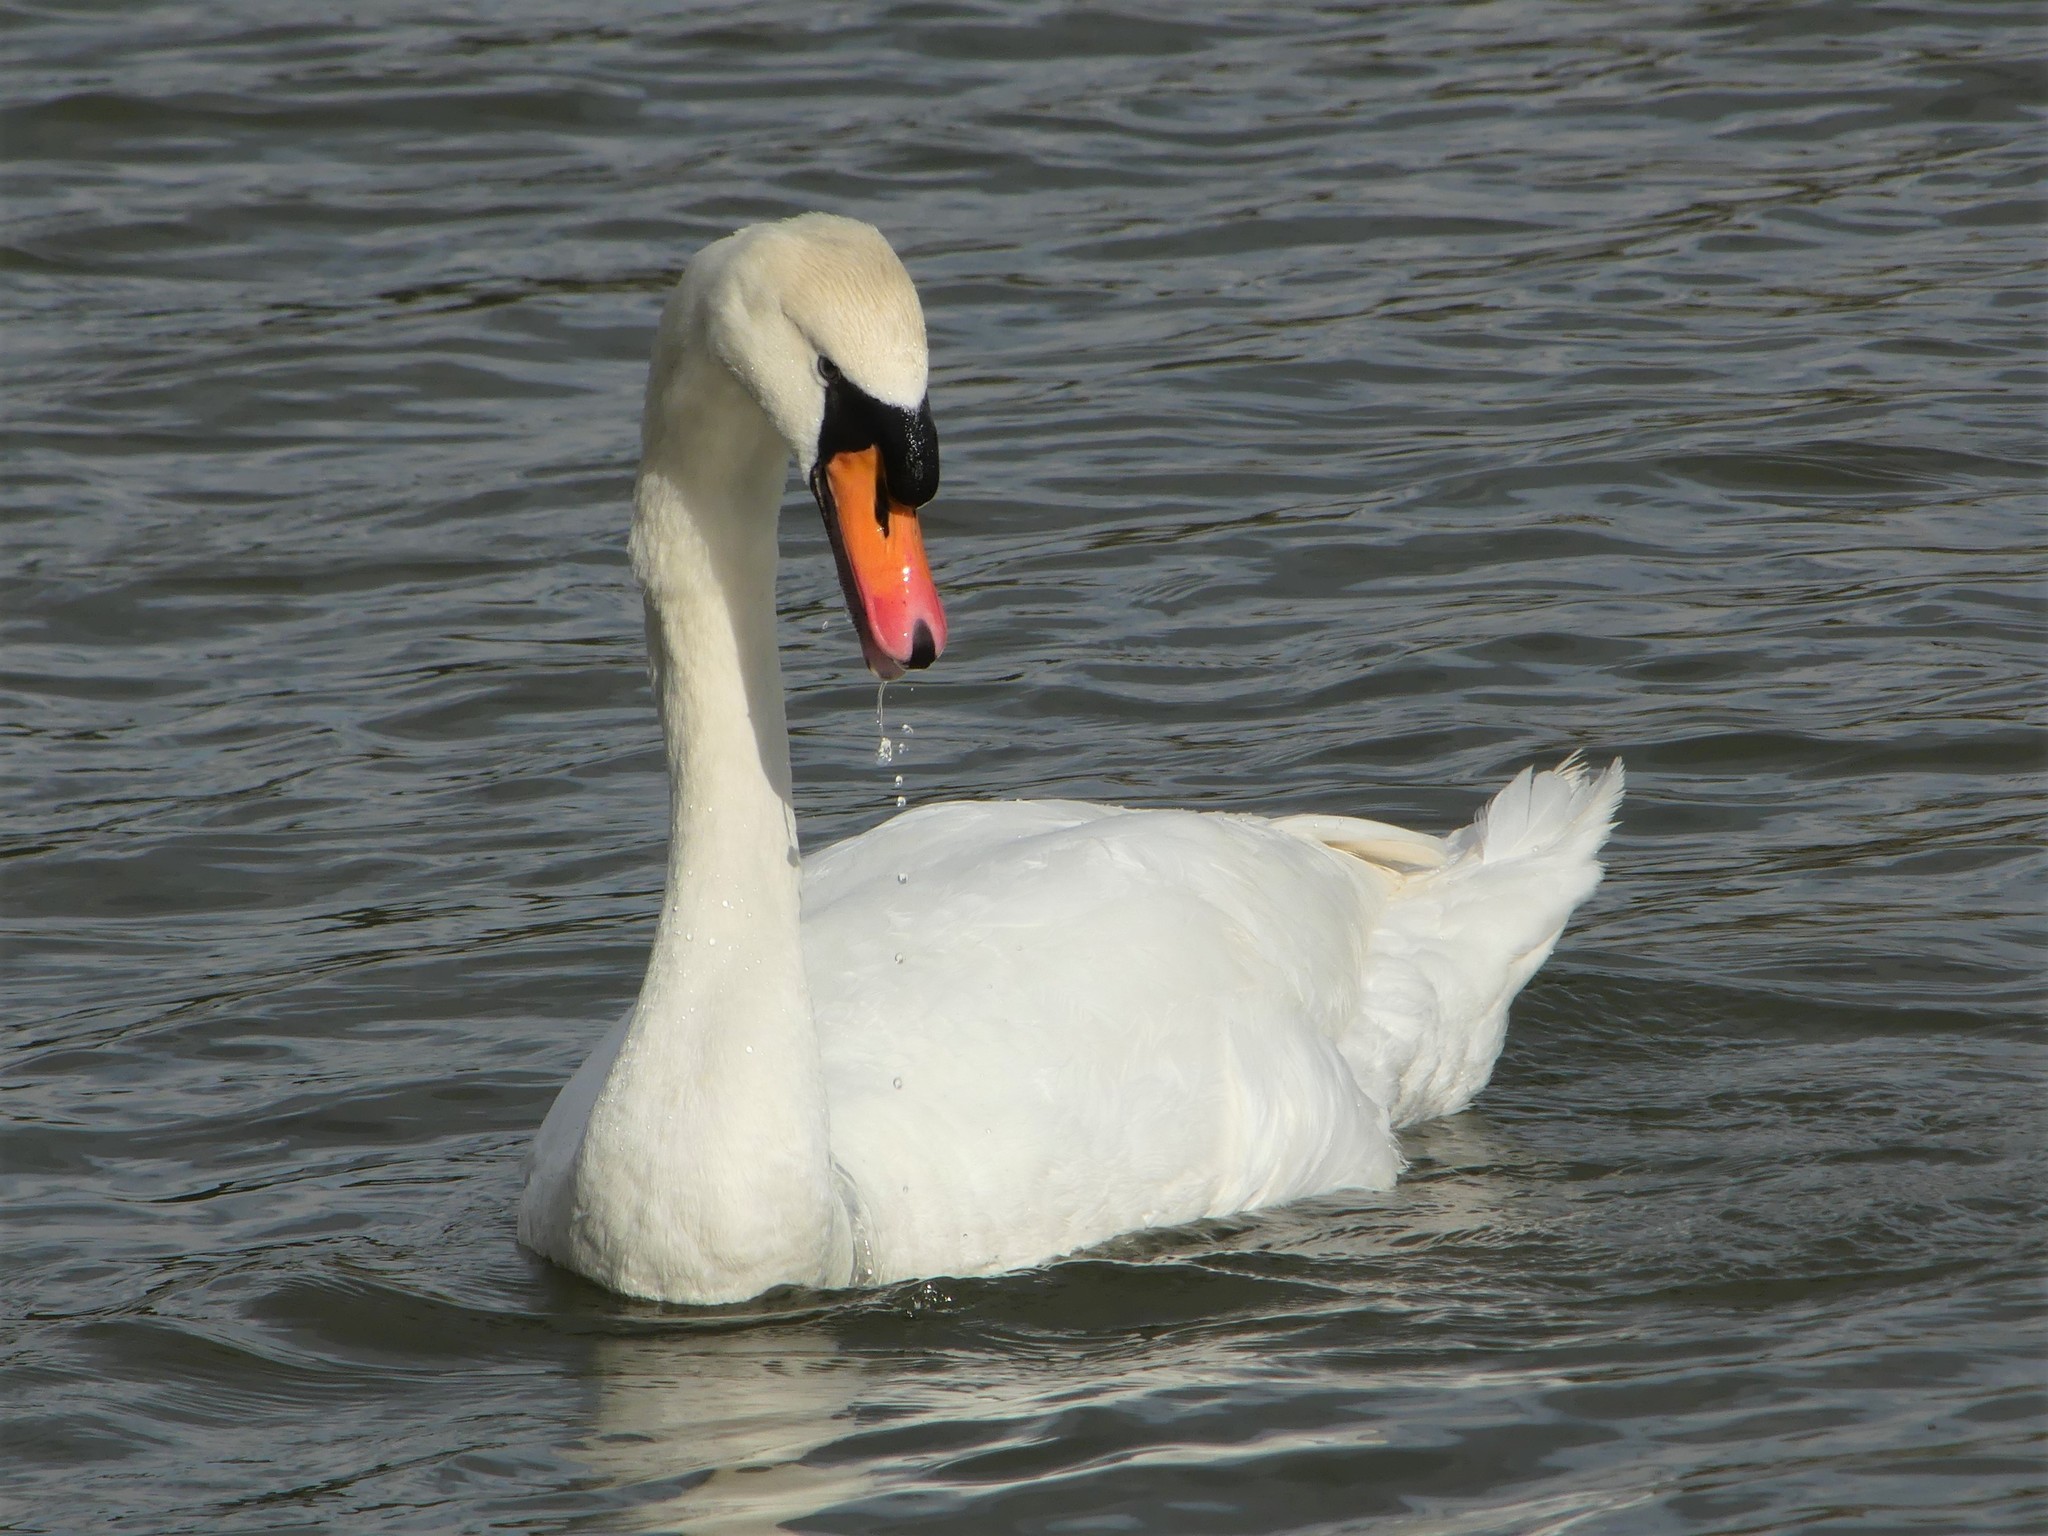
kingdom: Animalia
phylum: Chordata
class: Aves
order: Anseriformes
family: Anatidae
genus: Cygnus
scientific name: Cygnus olor
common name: Mute swan
